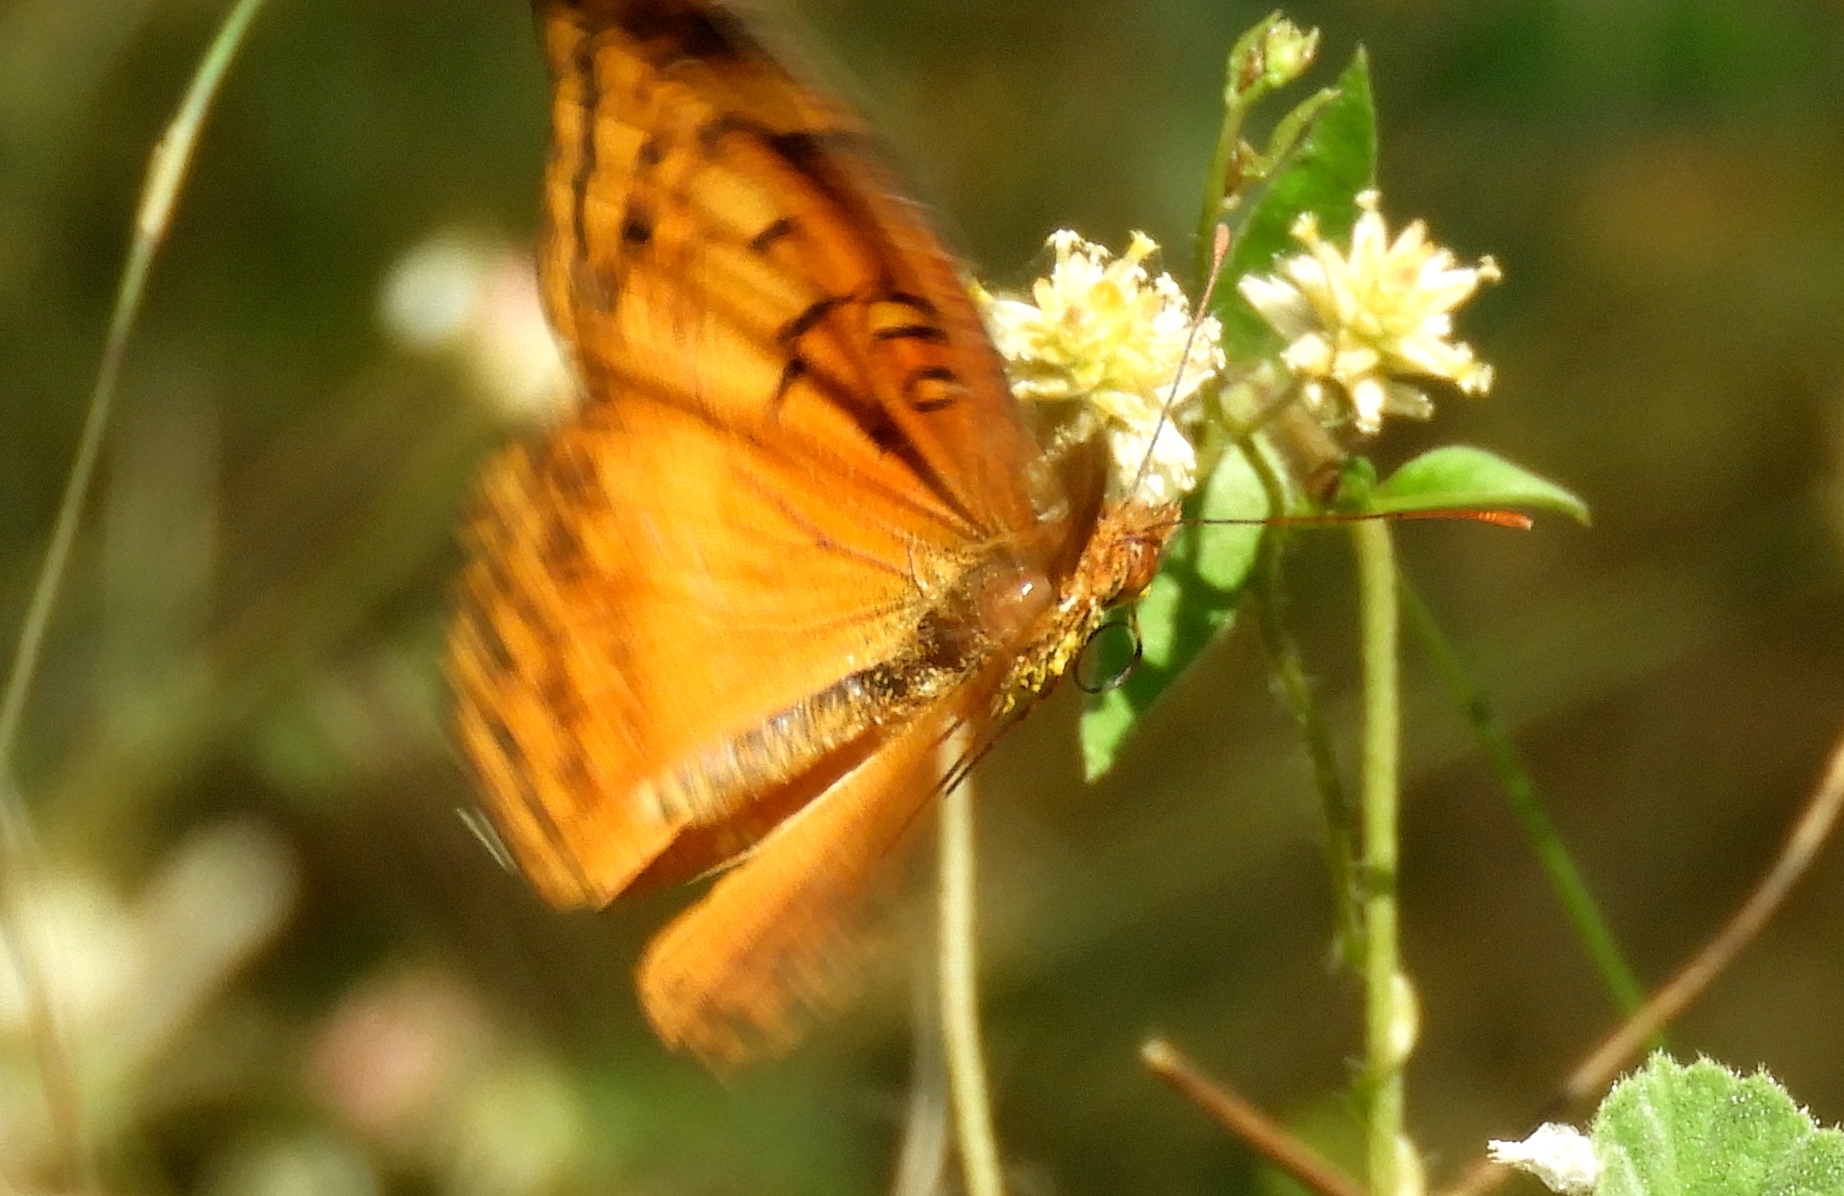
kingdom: Animalia
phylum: Arthropoda
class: Insecta
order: Lepidoptera
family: Nymphalidae
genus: Euptoieta
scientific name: Euptoieta hegesia
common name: Mexican fritillary
